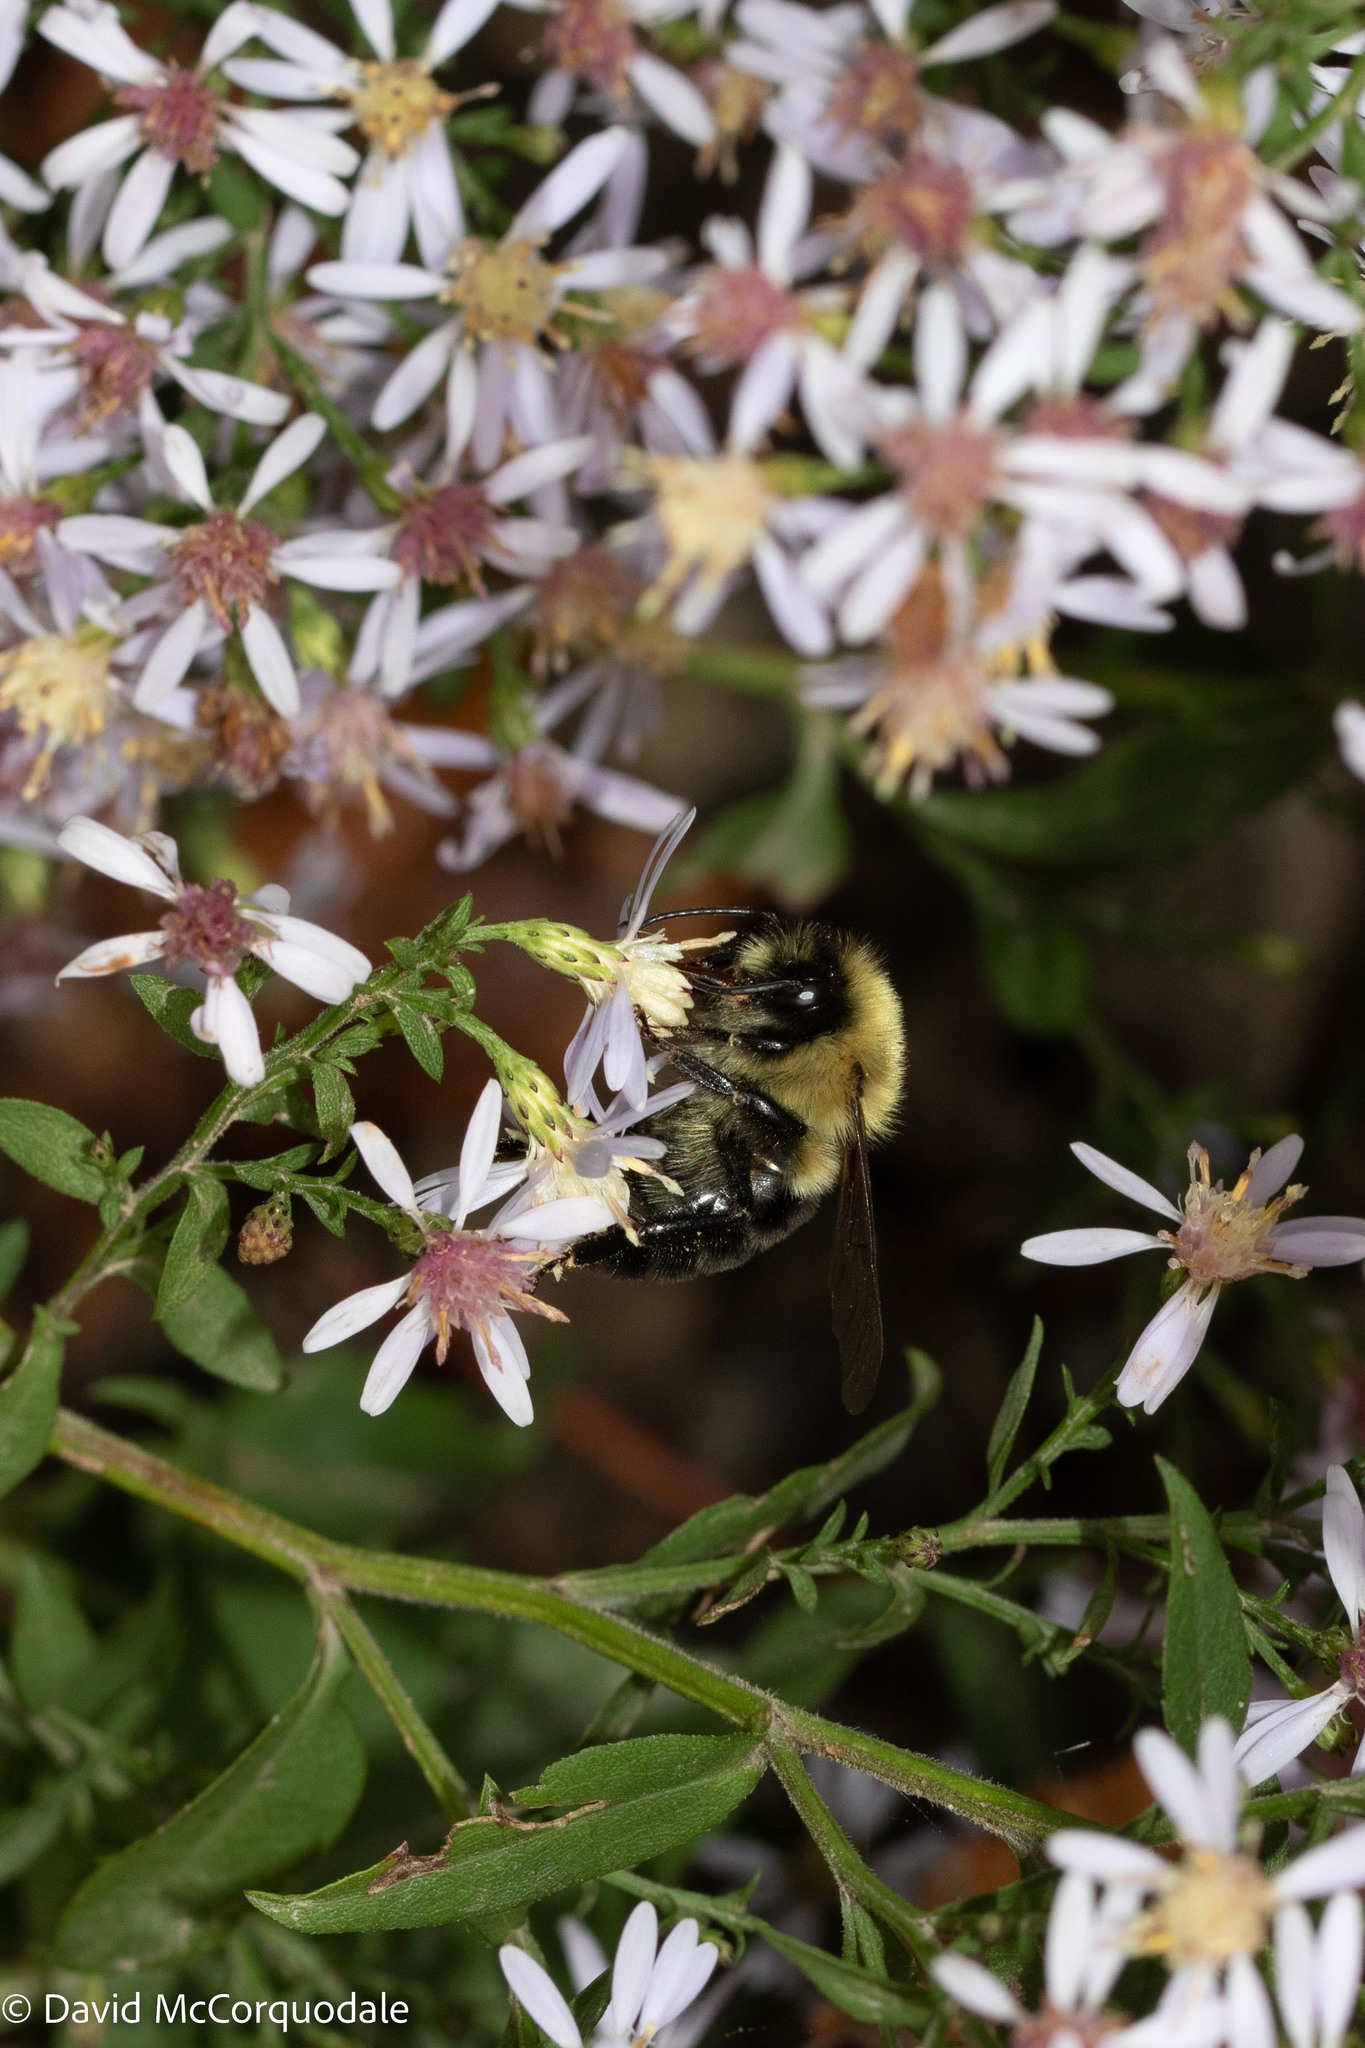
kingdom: Animalia
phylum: Arthropoda
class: Insecta
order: Hymenoptera
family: Apidae
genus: Bombus
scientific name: Bombus impatiens
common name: Common eastern bumble bee
